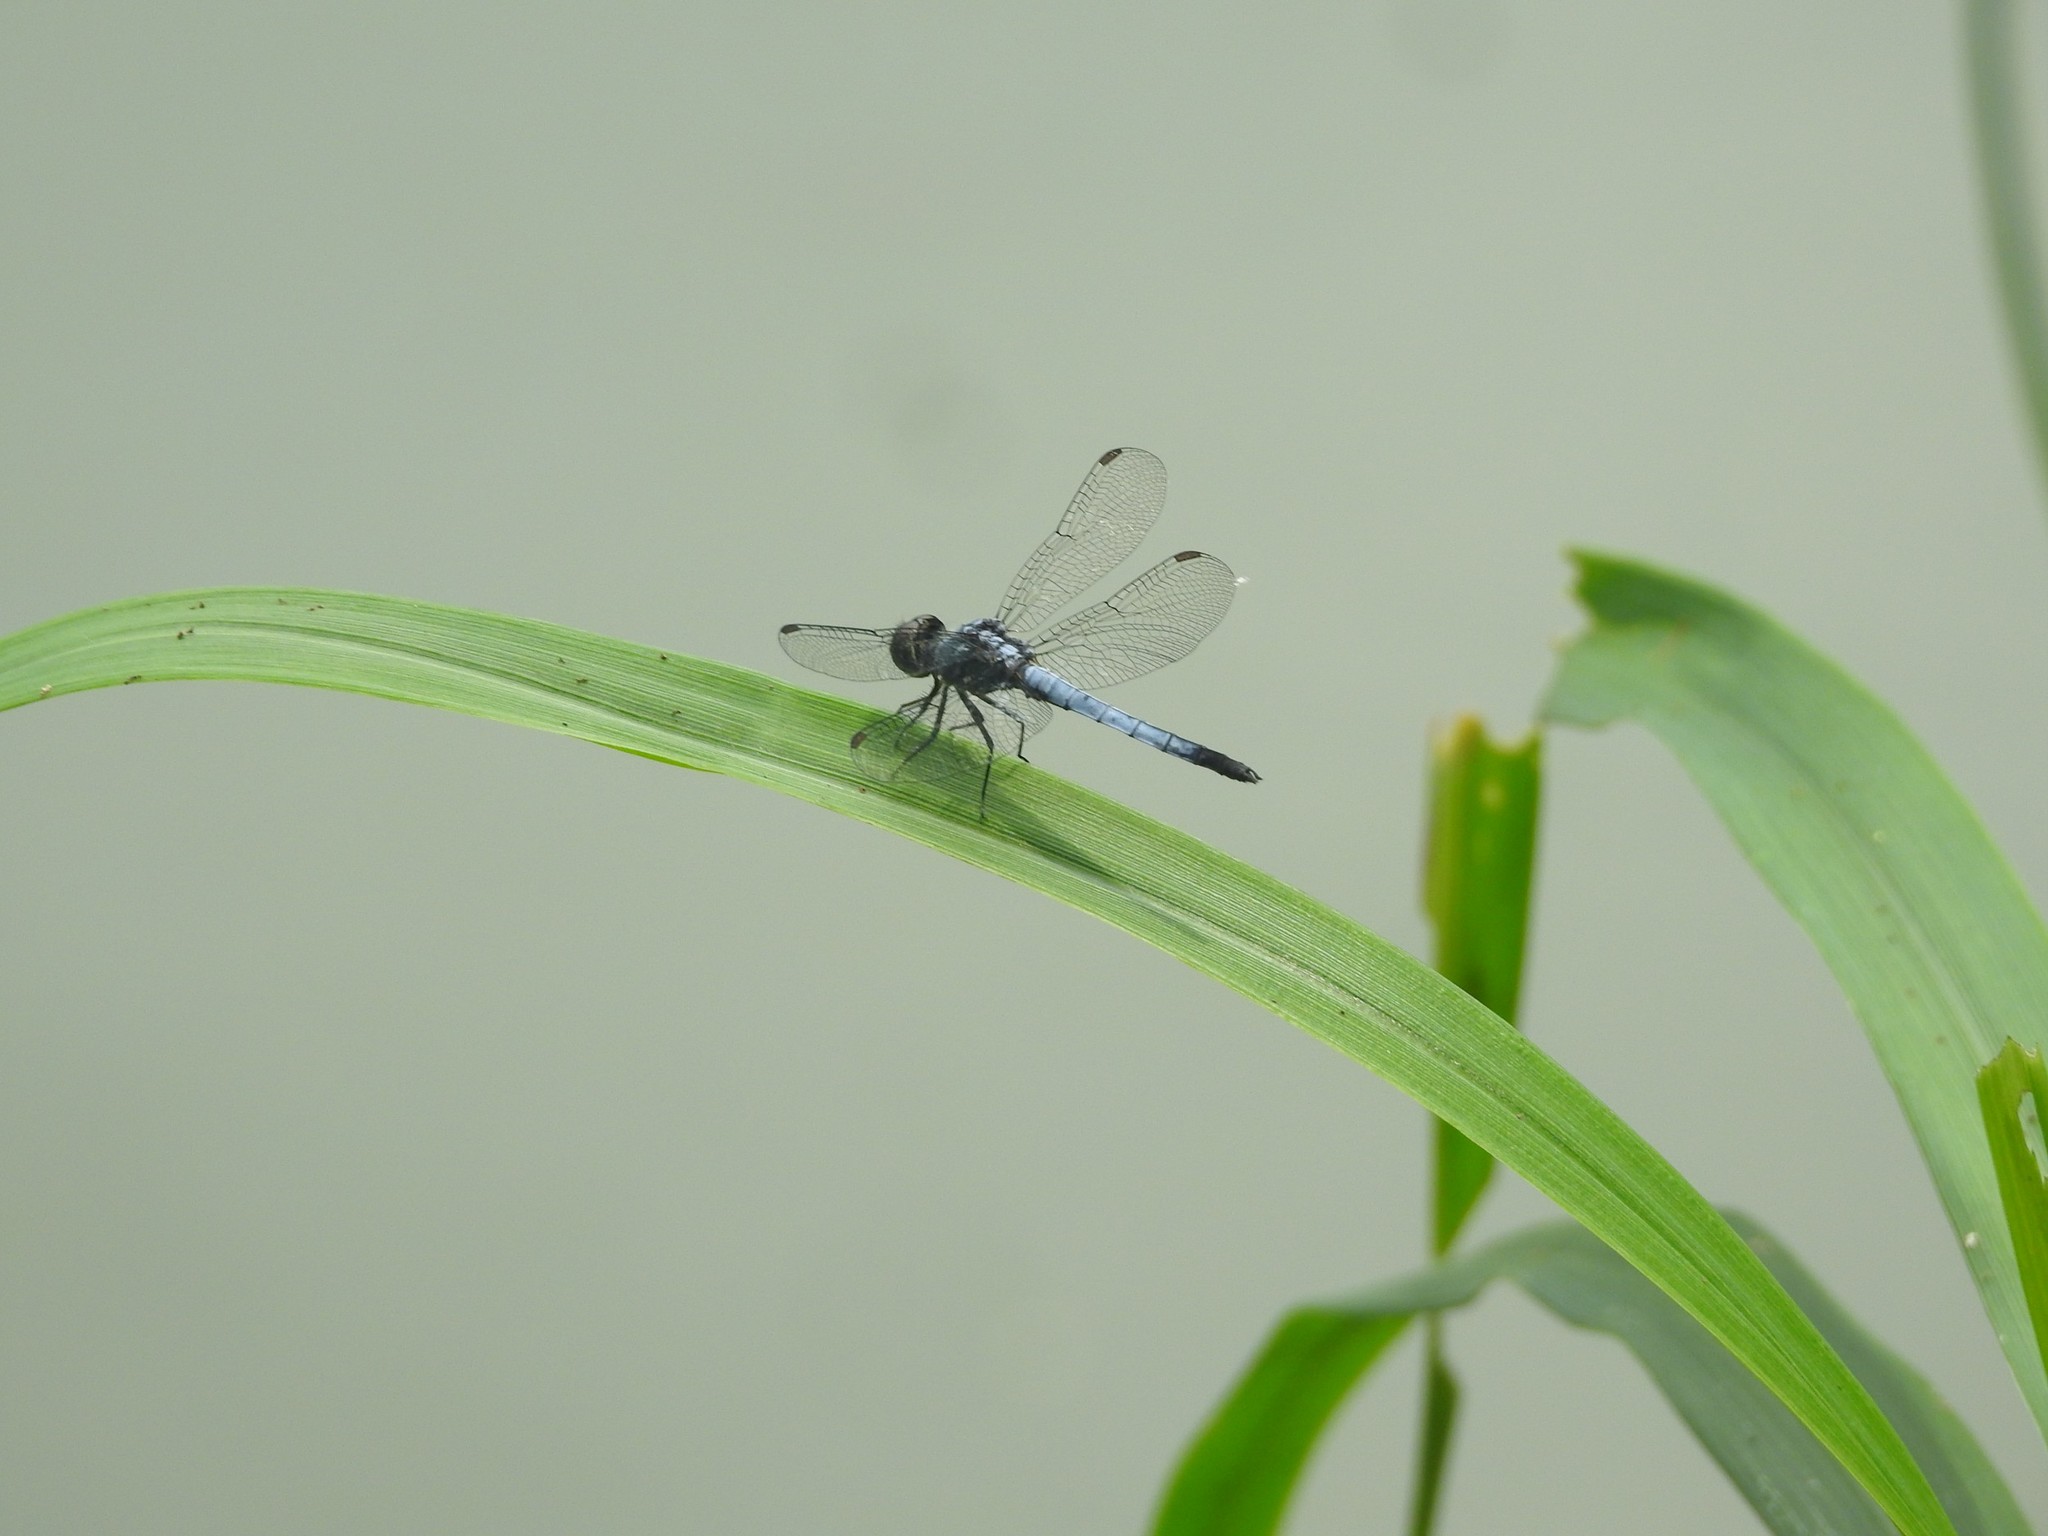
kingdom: Animalia
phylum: Arthropoda
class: Insecta
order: Odonata
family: Libellulidae
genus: Brachydiplax
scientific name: Brachydiplax sobrina
